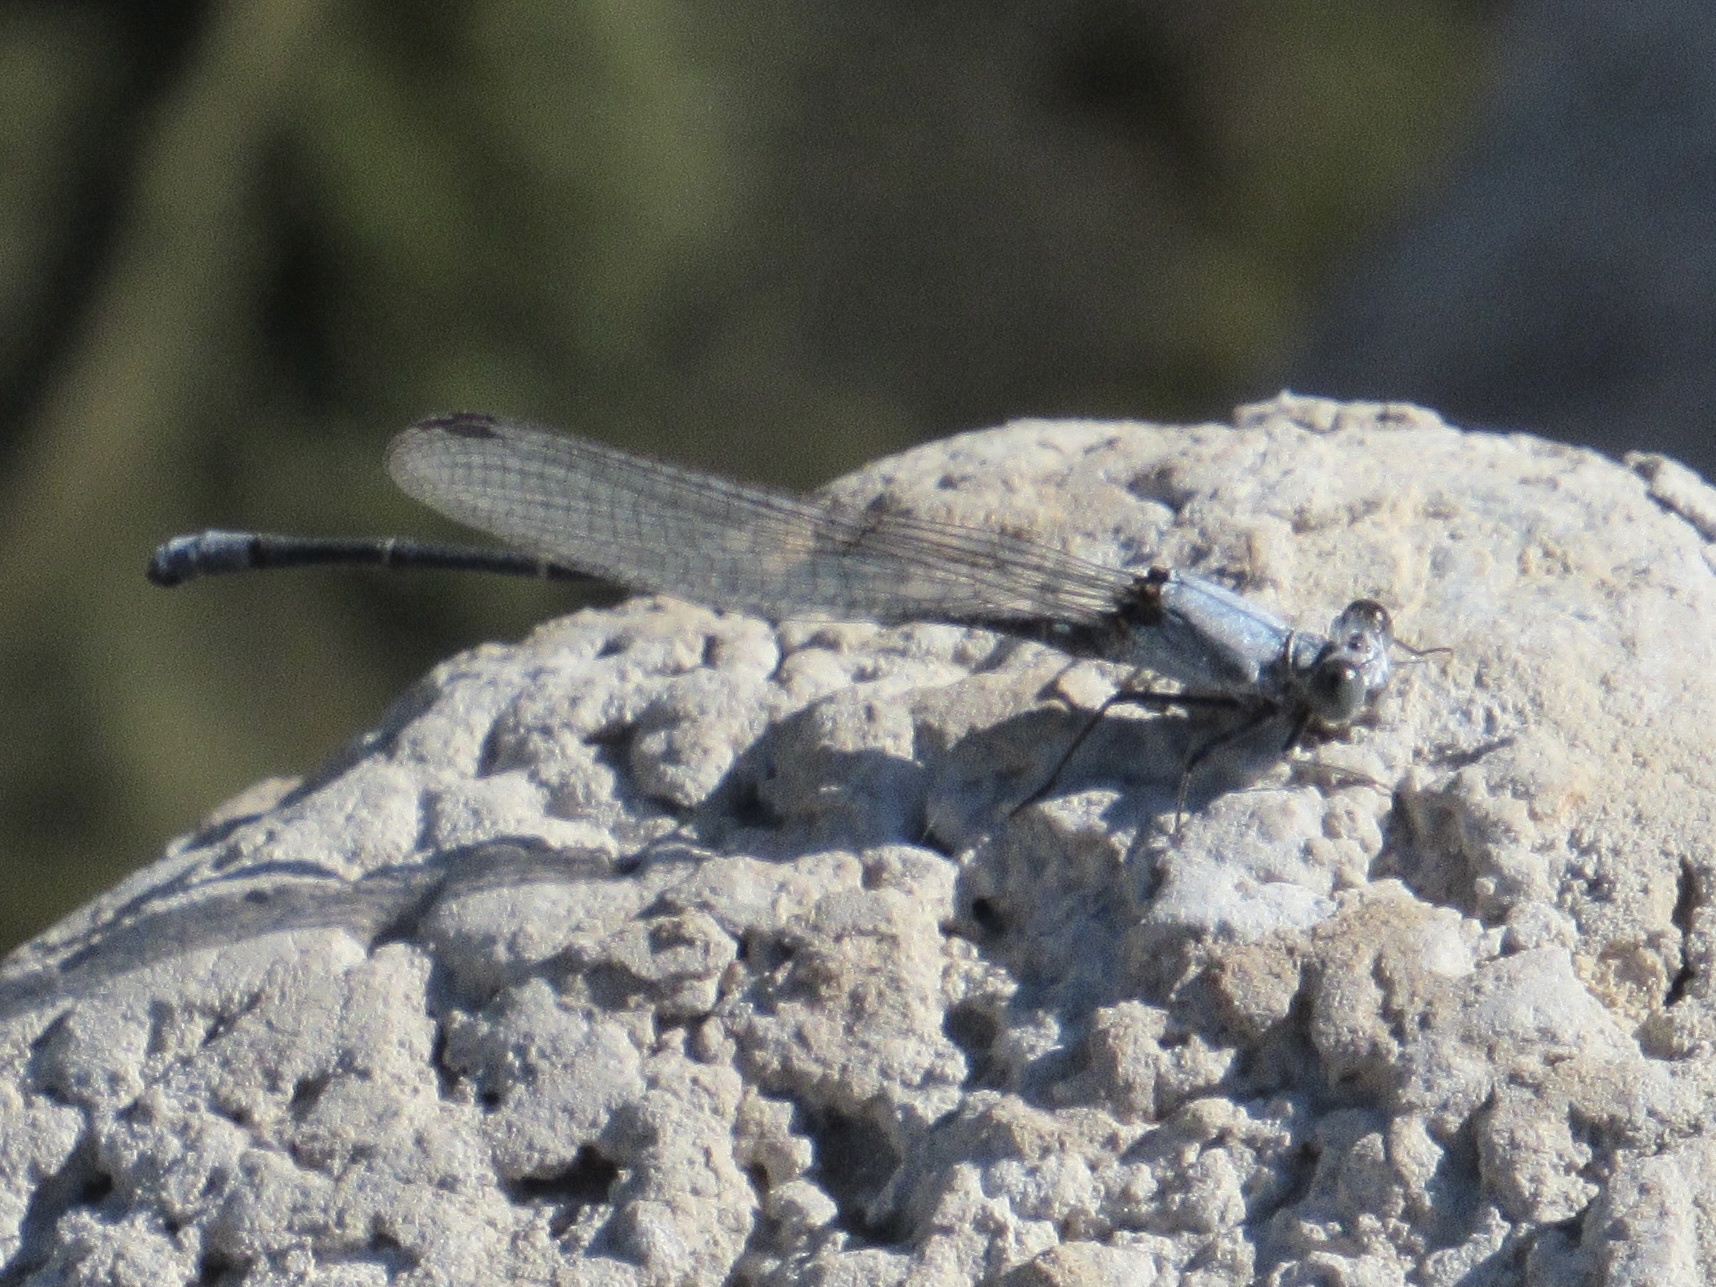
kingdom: Animalia
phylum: Arthropoda
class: Insecta
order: Odonata
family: Coenagrionidae
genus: Argia
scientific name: Argia moesta
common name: Powdered dancer
